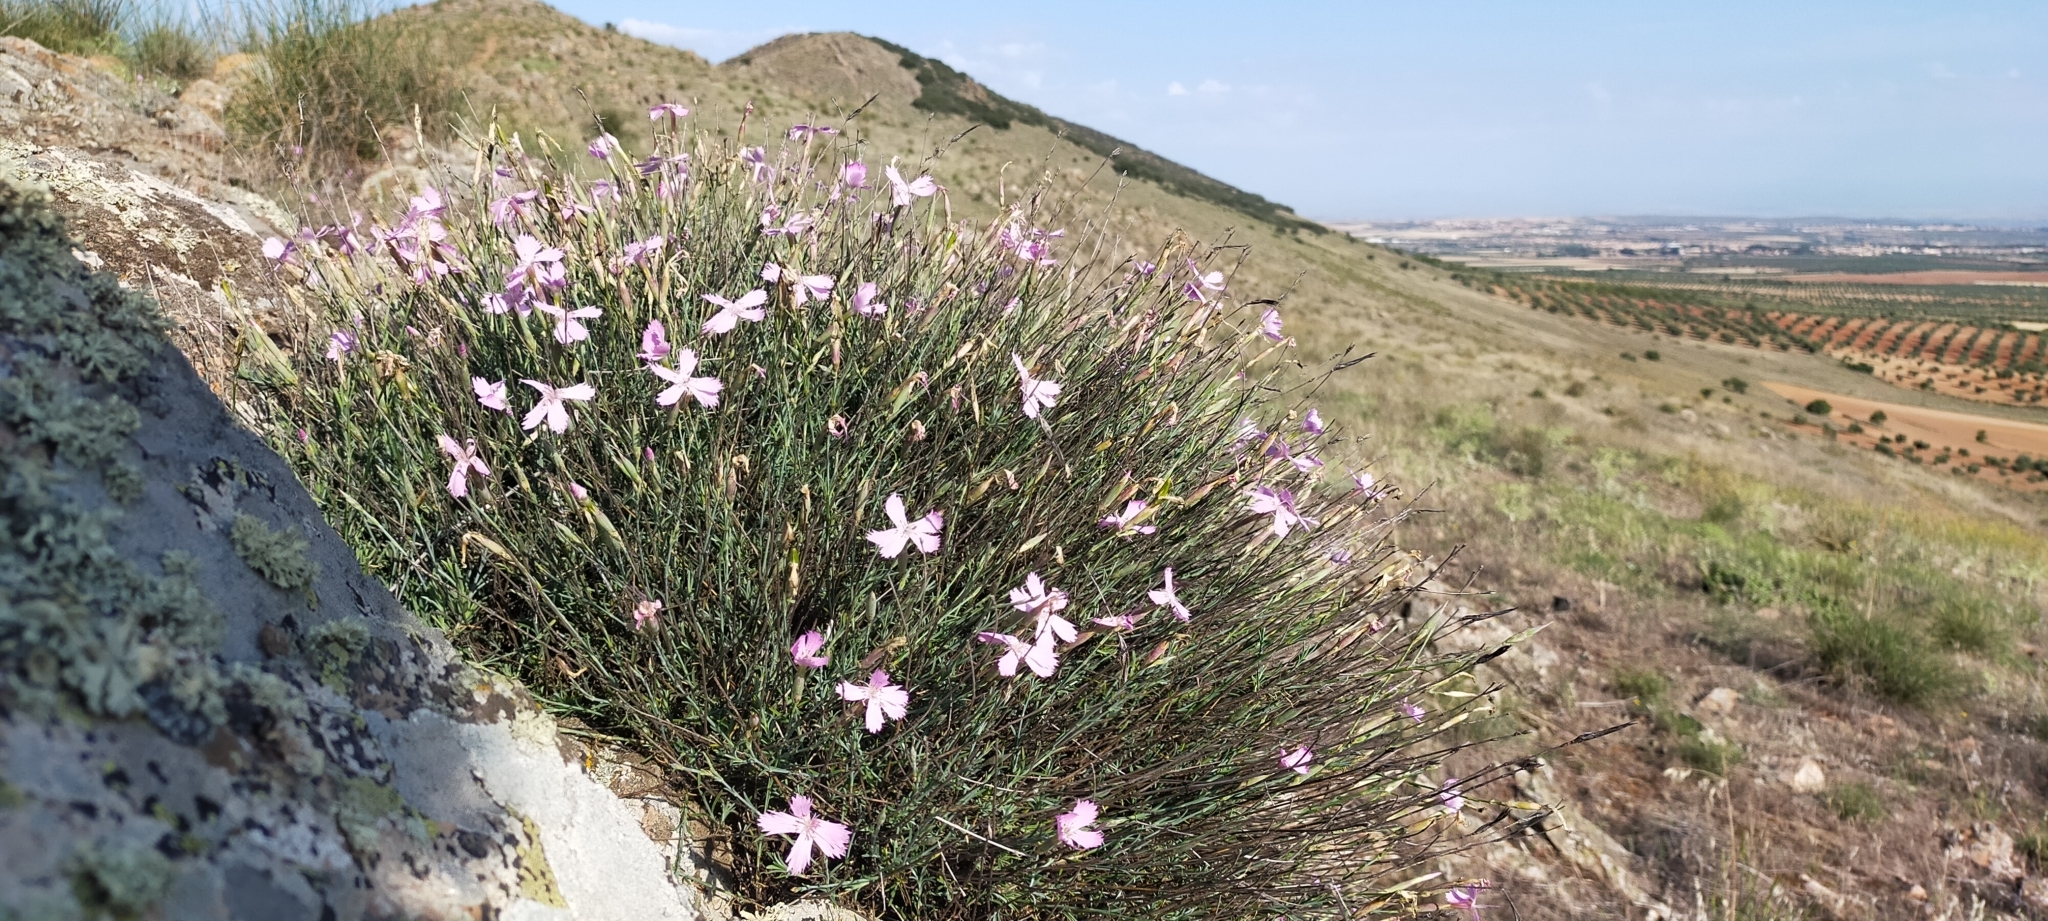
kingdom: Plantae
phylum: Tracheophyta
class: Magnoliopsida
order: Caryophyllales
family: Caryophyllaceae
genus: Dianthus
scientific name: Dianthus lusitanus
